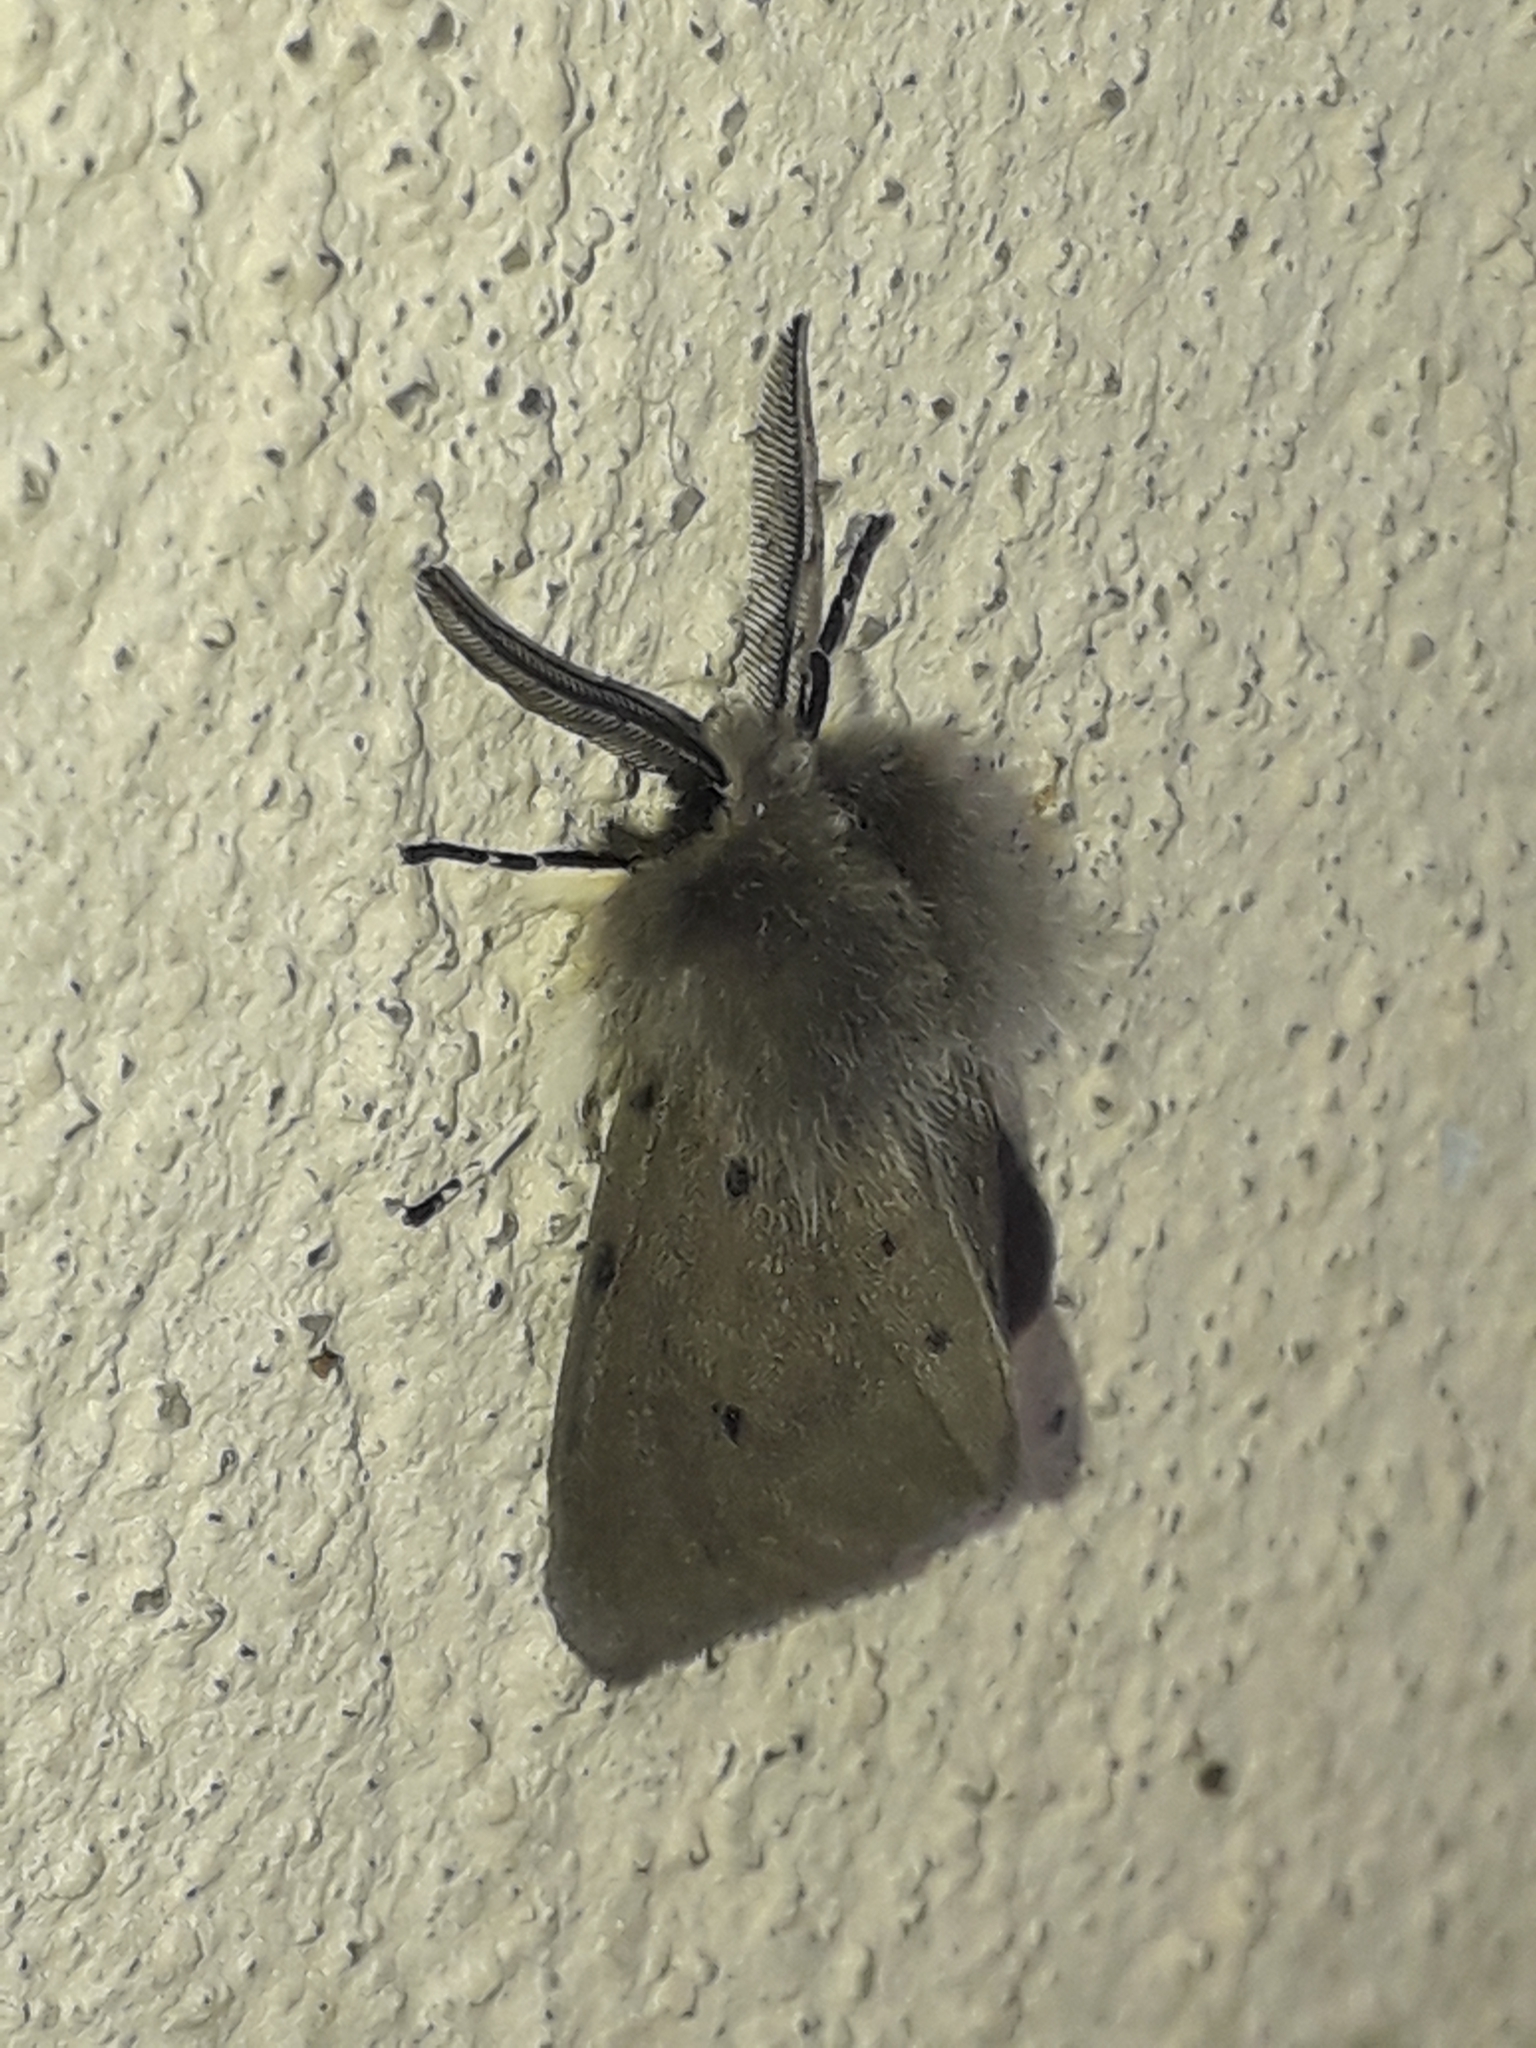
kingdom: Animalia
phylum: Arthropoda
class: Insecta
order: Lepidoptera
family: Erebidae
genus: Diaphora
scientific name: Diaphora mendica
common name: Muslin moth
